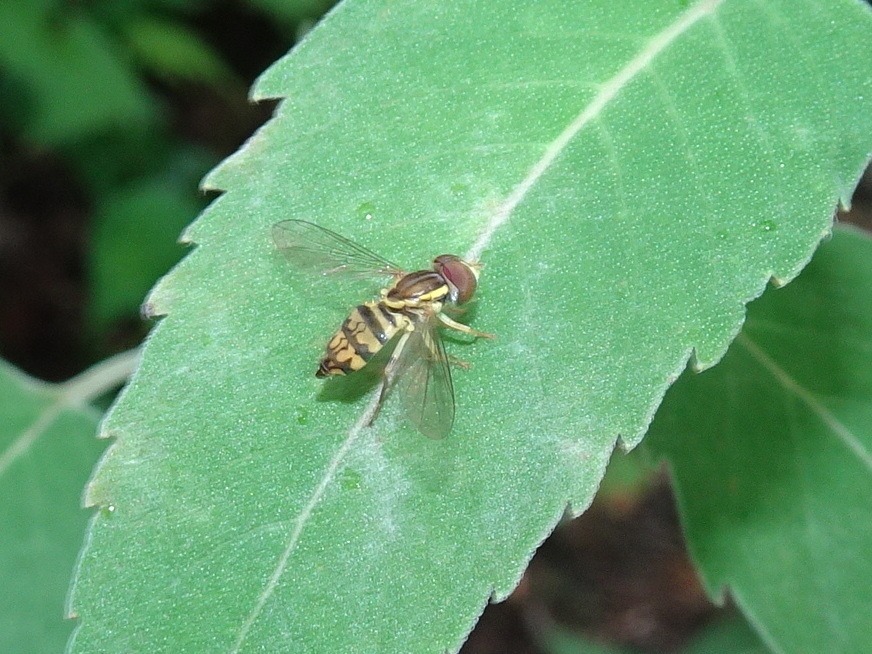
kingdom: Animalia
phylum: Arthropoda
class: Insecta
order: Diptera
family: Syrphidae
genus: Toxomerus
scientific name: Toxomerus geminatus
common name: Eastern calligrapher
